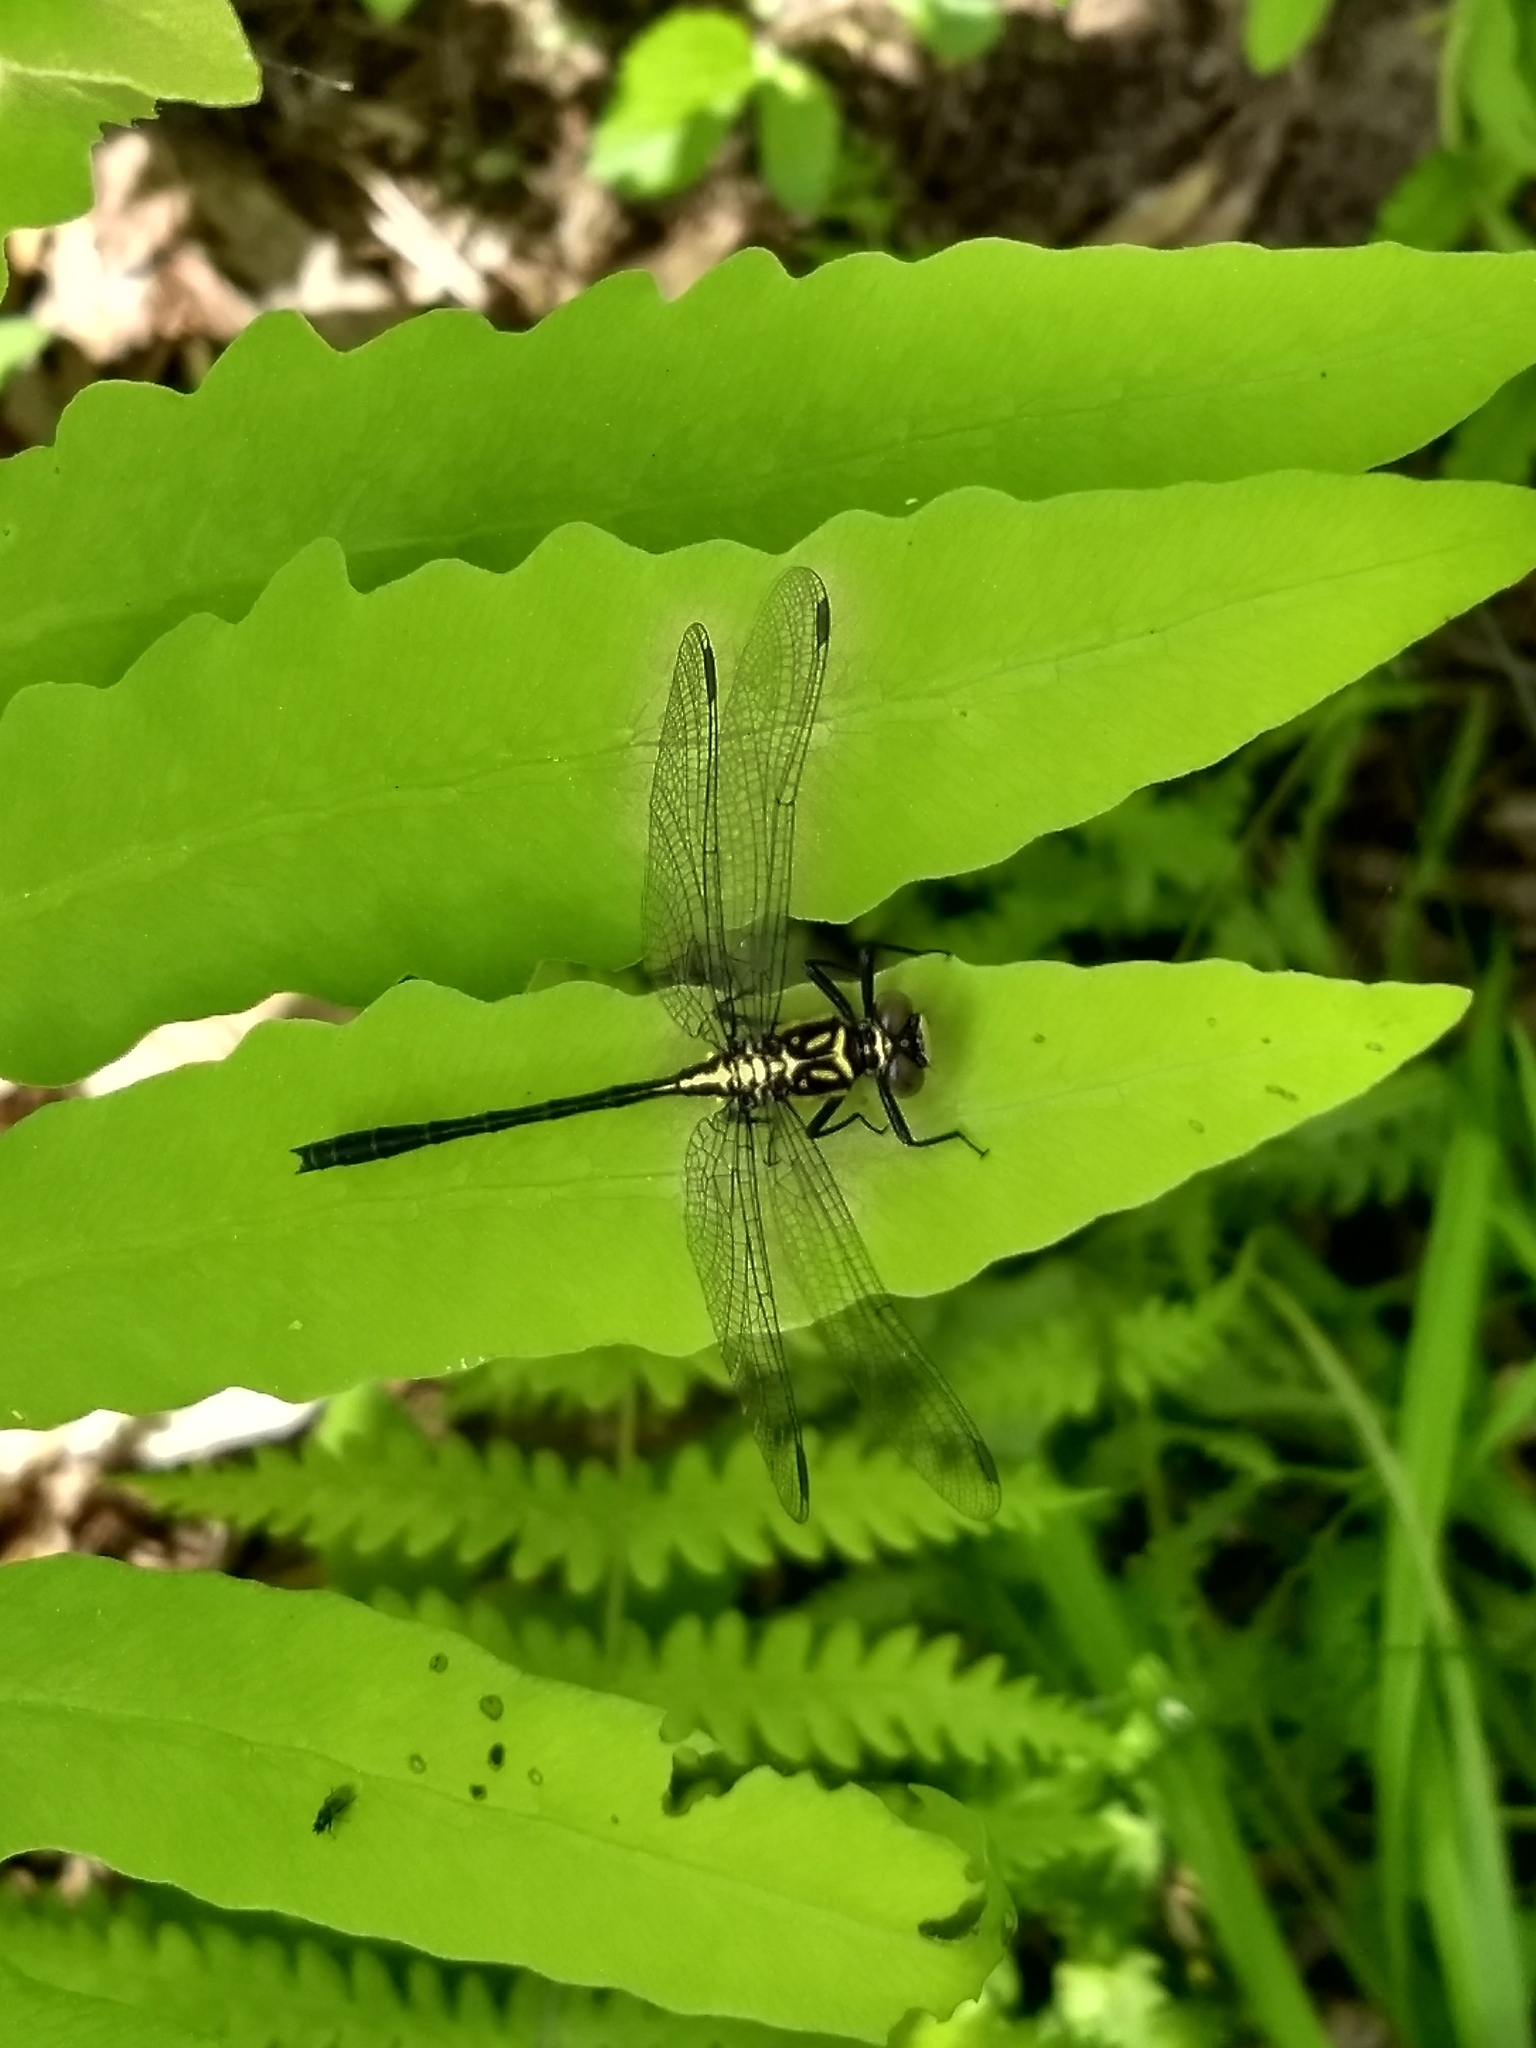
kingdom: Animalia
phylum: Arthropoda
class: Insecta
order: Odonata
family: Gomphidae
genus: Lanthus
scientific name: Lanthus vernalis
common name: Southern pygmy clubtail
